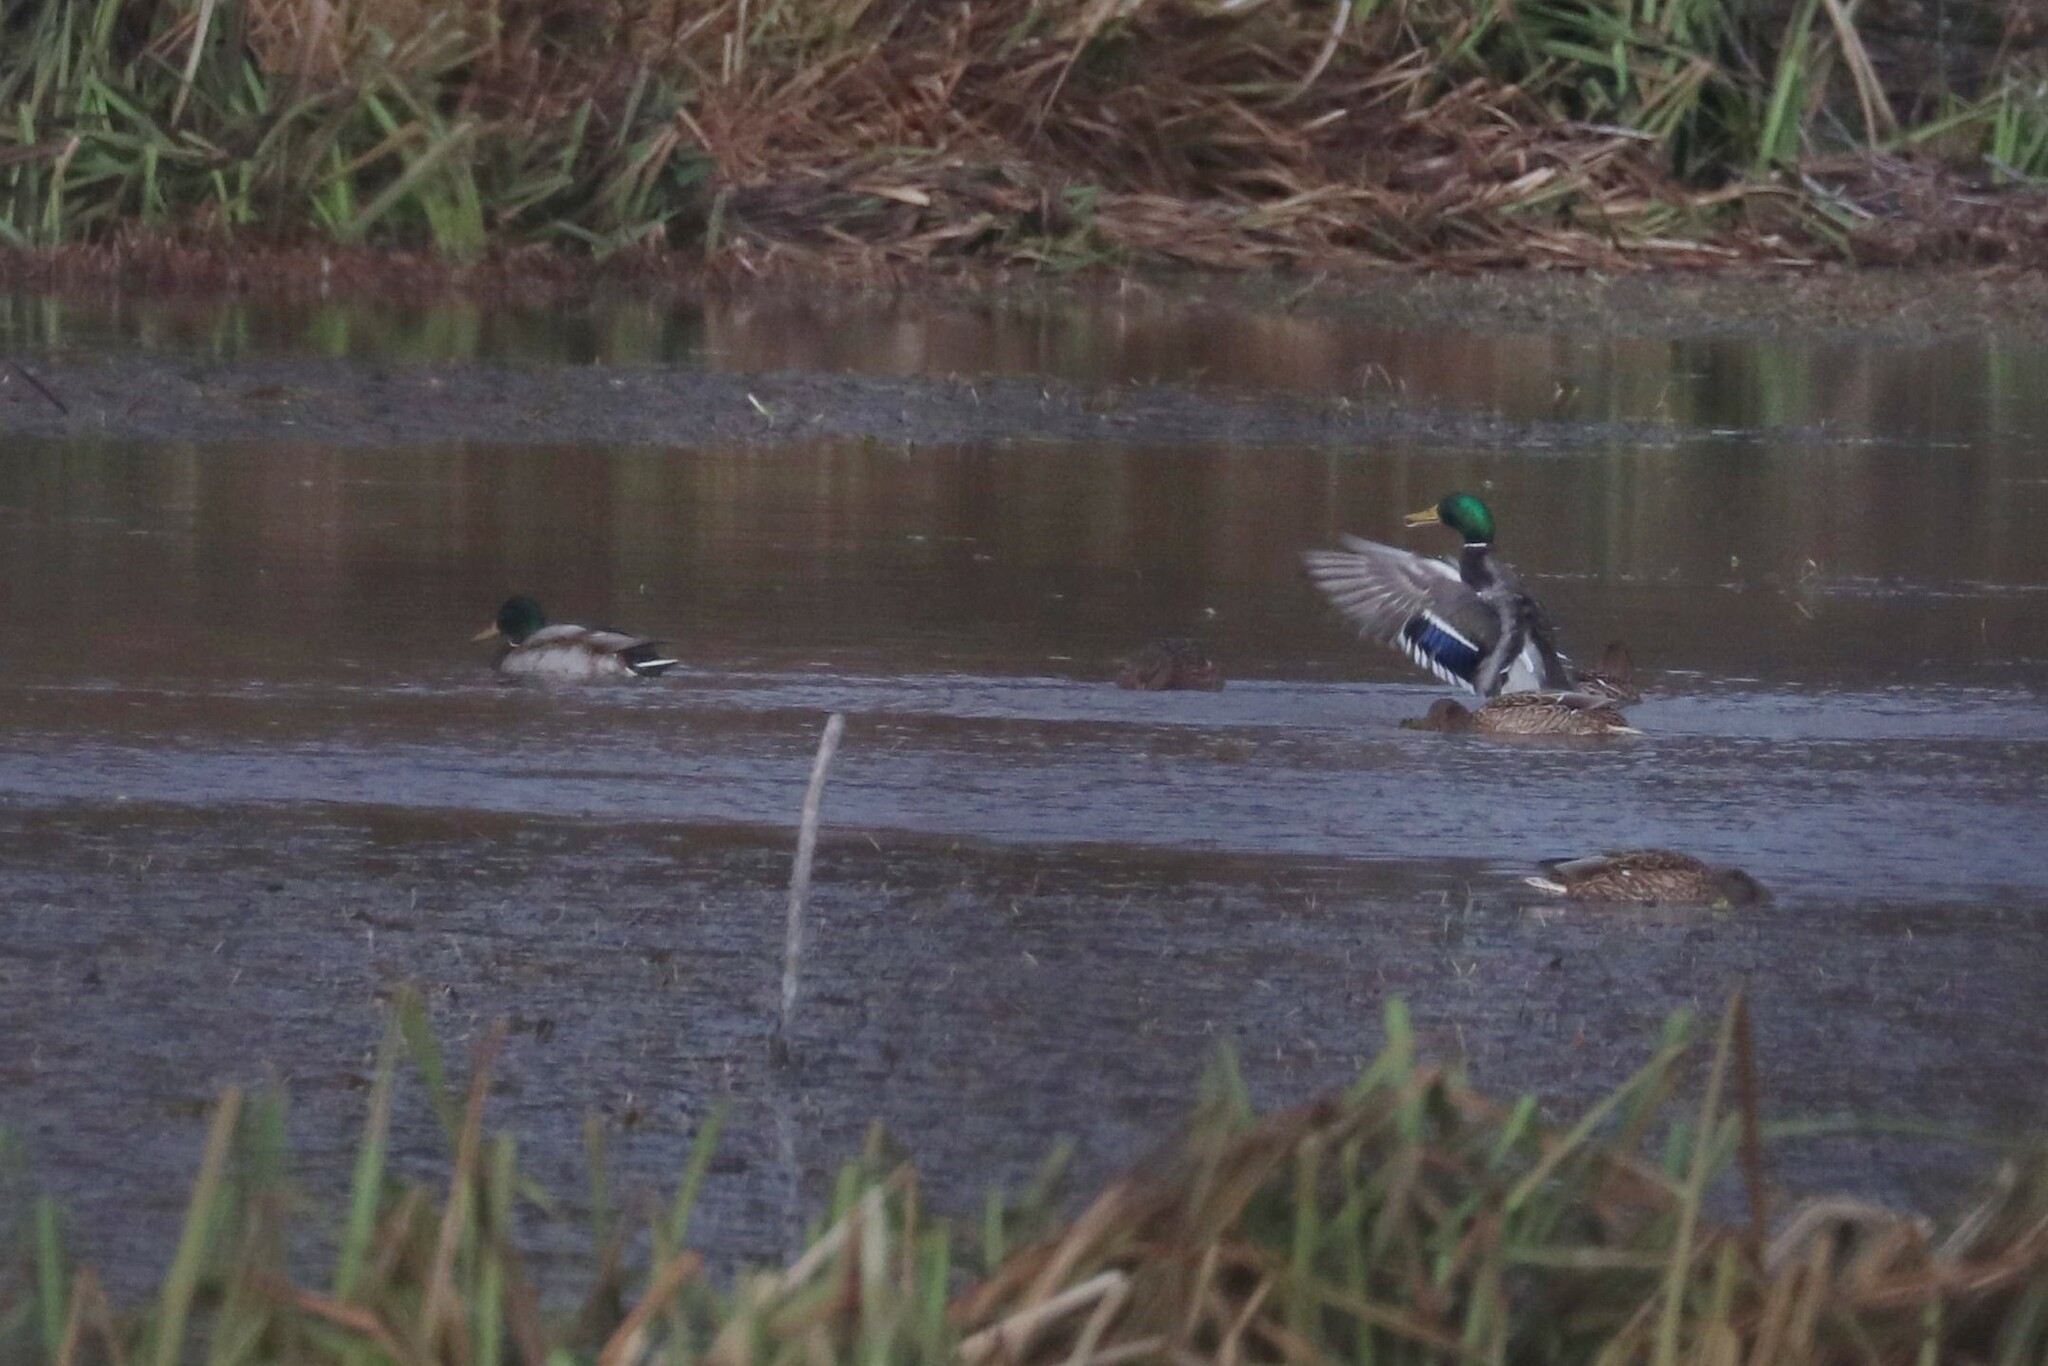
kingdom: Animalia
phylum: Chordata
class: Aves
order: Anseriformes
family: Anatidae
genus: Anas
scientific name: Anas platyrhynchos
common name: Mallard
